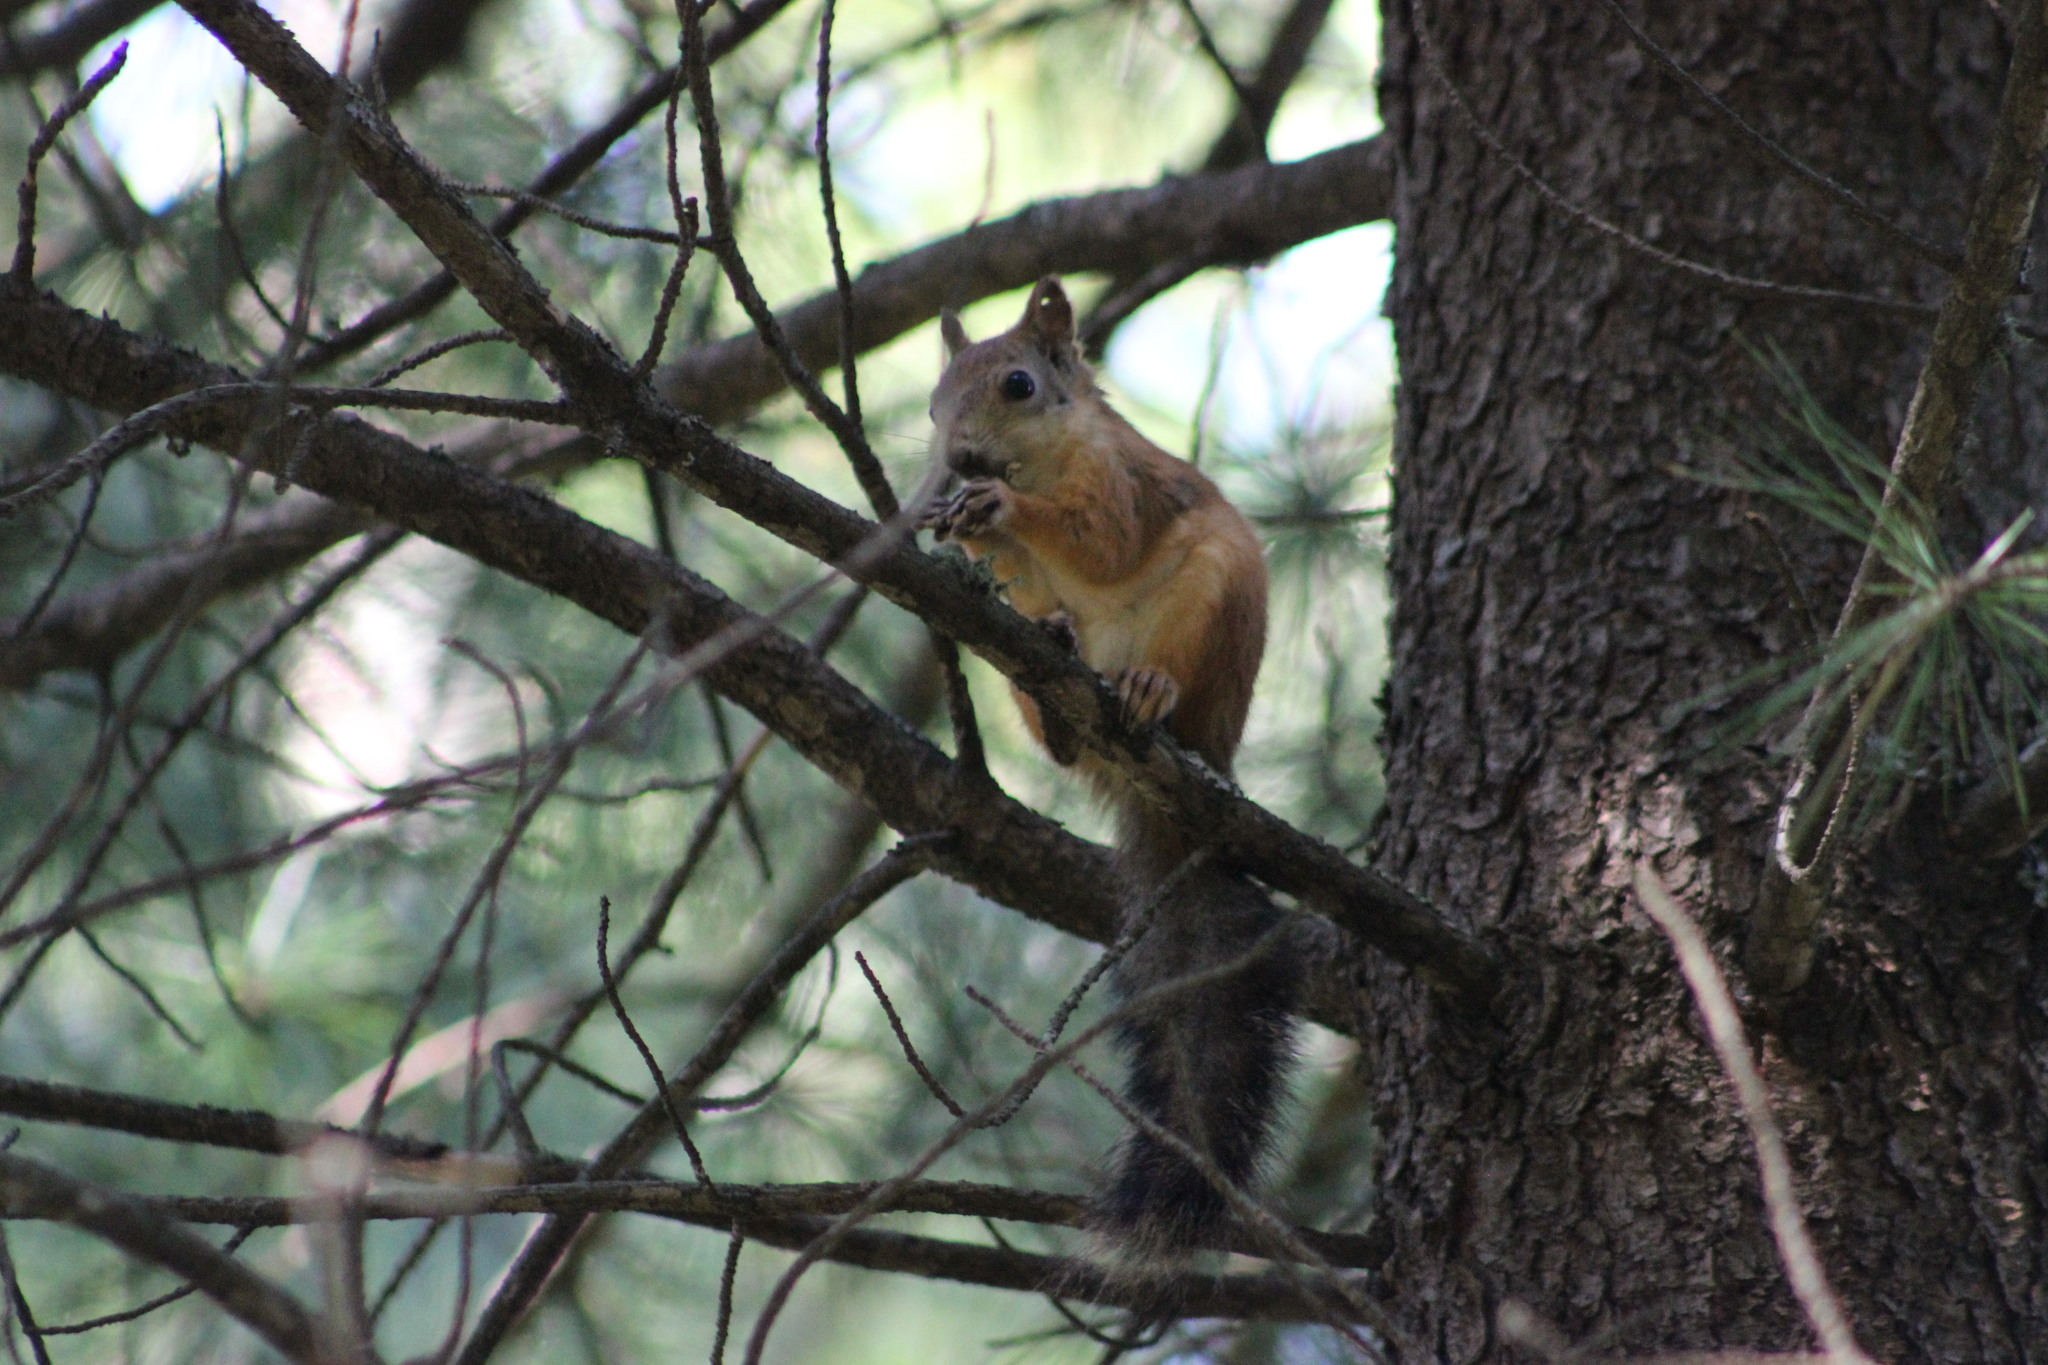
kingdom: Animalia
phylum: Chordata
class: Mammalia
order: Rodentia
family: Sciuridae
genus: Sciurus
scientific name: Sciurus vulgaris
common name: Eurasian red squirrel
